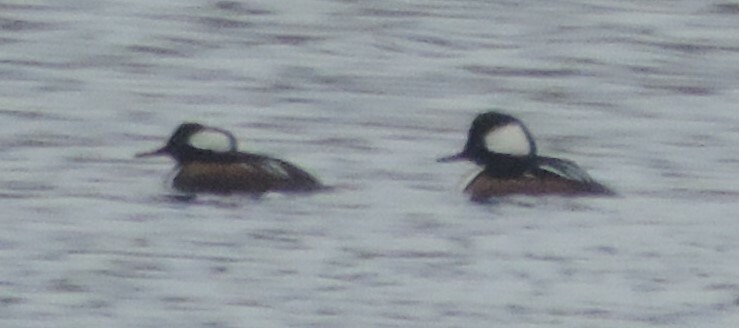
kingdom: Animalia
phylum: Chordata
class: Aves
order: Anseriformes
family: Anatidae
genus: Lophodytes
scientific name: Lophodytes cucullatus
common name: Hooded merganser
